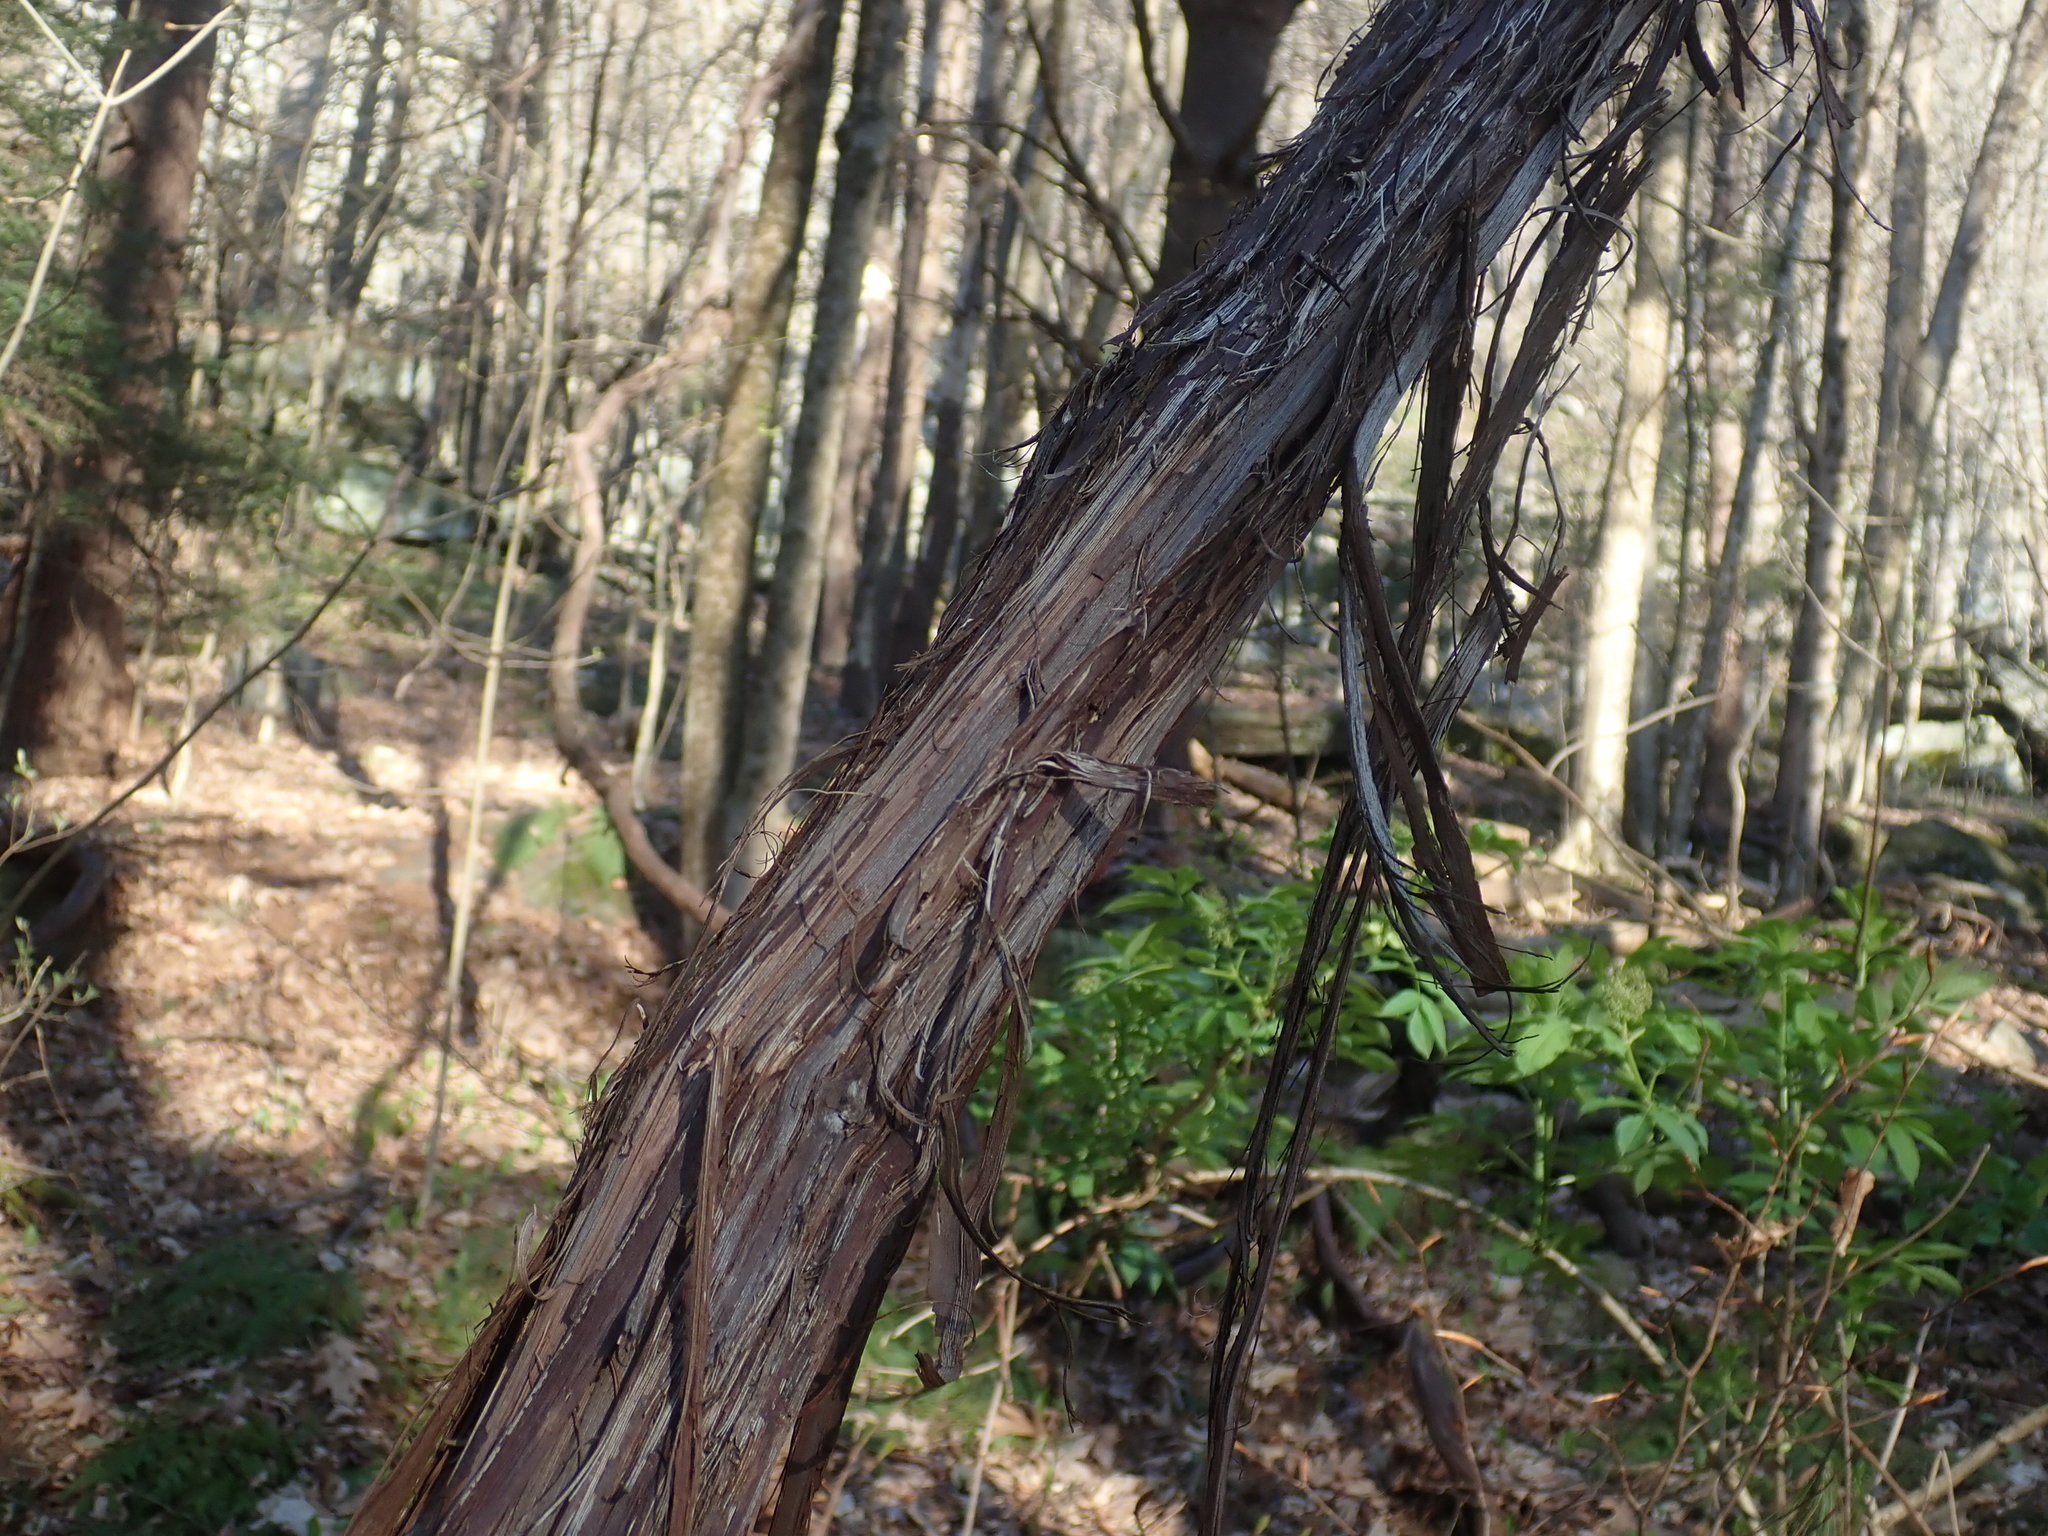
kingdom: Plantae
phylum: Tracheophyta
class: Magnoliopsida
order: Vitales
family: Vitaceae
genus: Vitis
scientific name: Vitis
